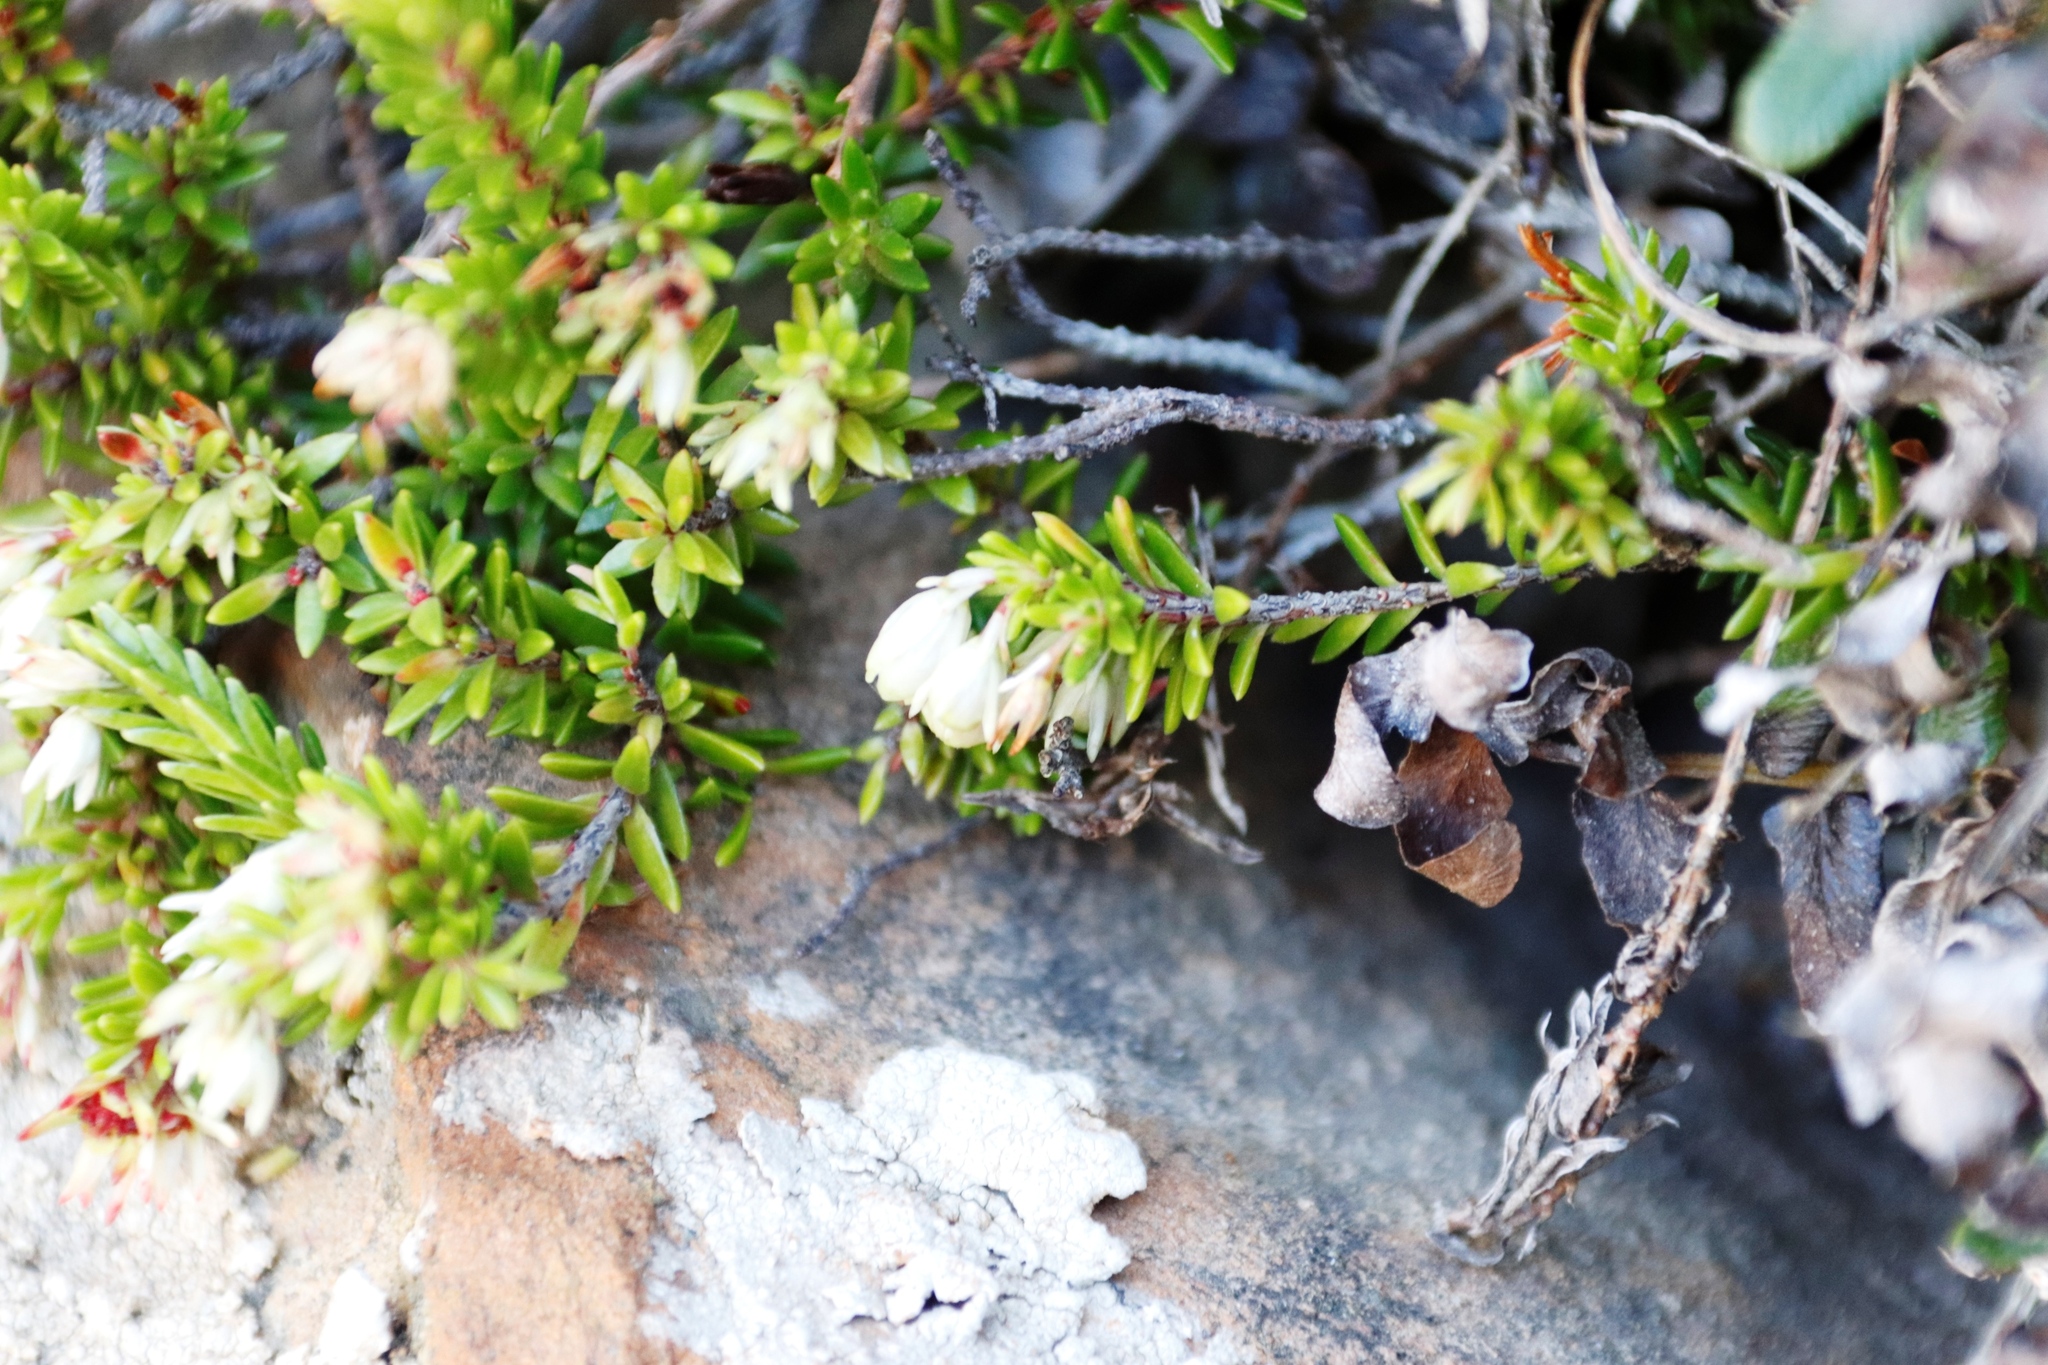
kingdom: Plantae
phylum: Tracheophyta
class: Magnoliopsida
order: Ericales
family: Ericaceae
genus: Erica
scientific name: Erica depressa
